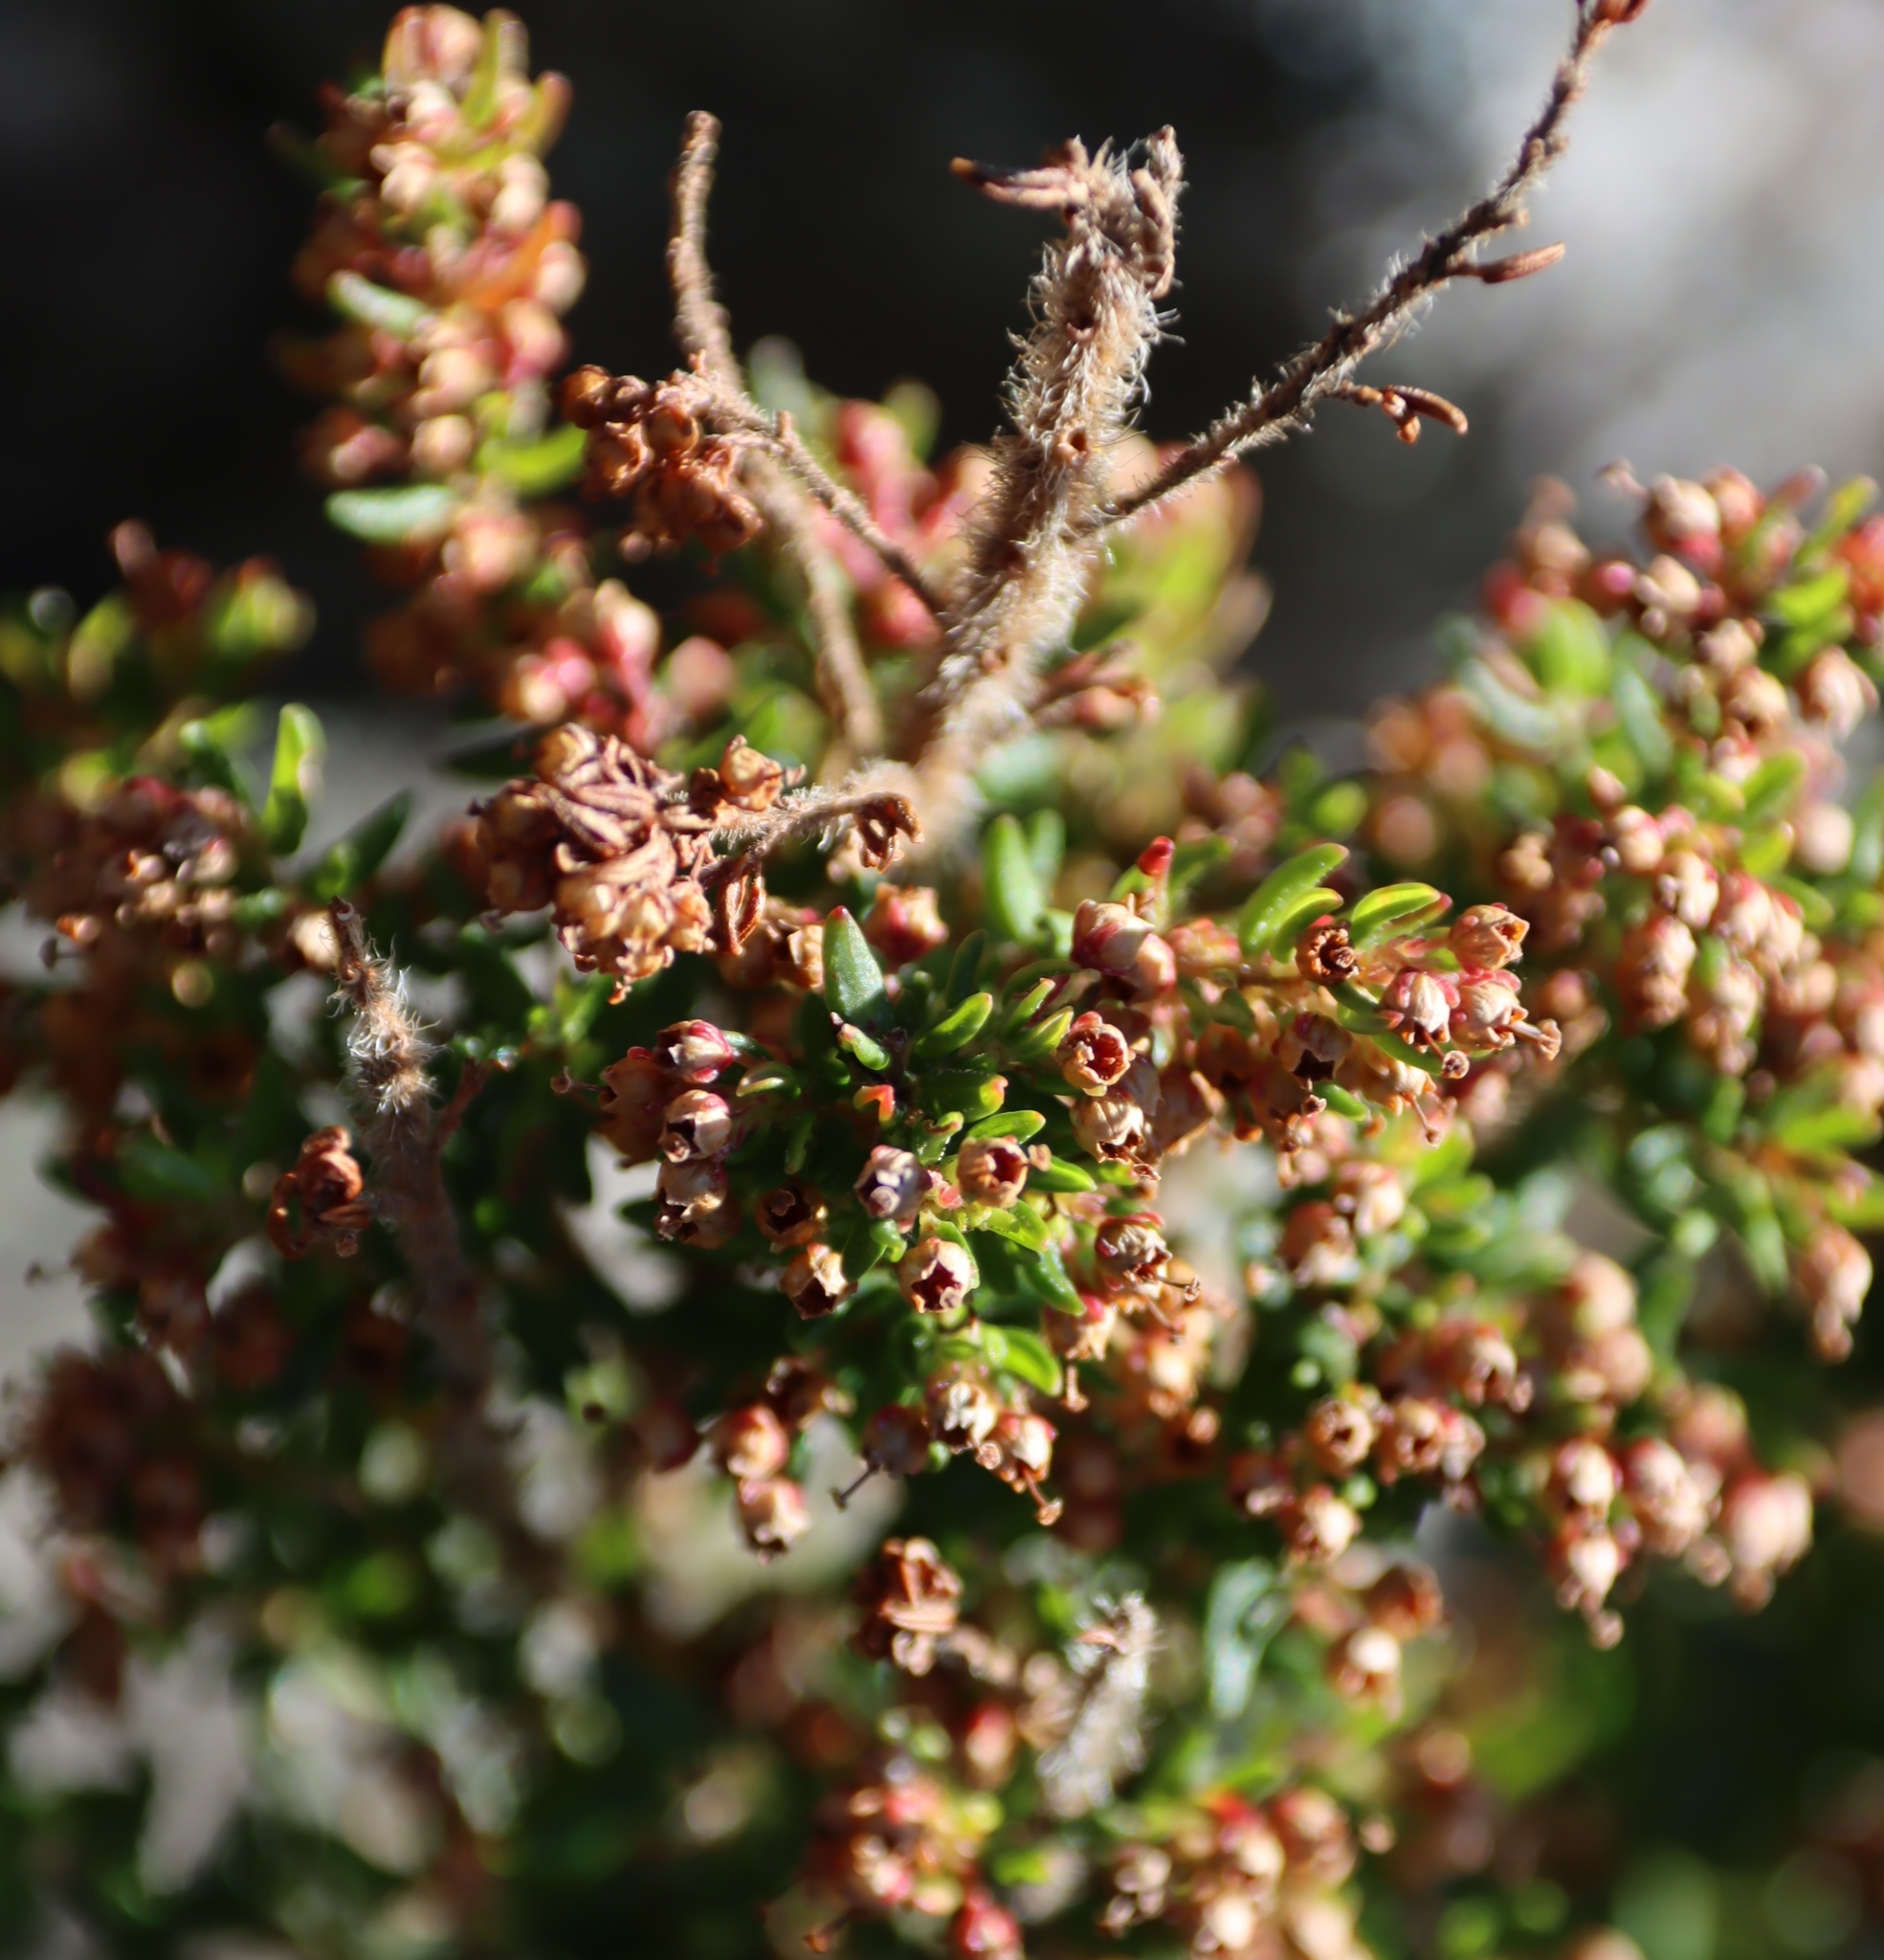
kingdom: Plantae
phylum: Tracheophyta
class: Magnoliopsida
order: Ericales
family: Ericaceae
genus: Erica
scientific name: Erica hispidula
